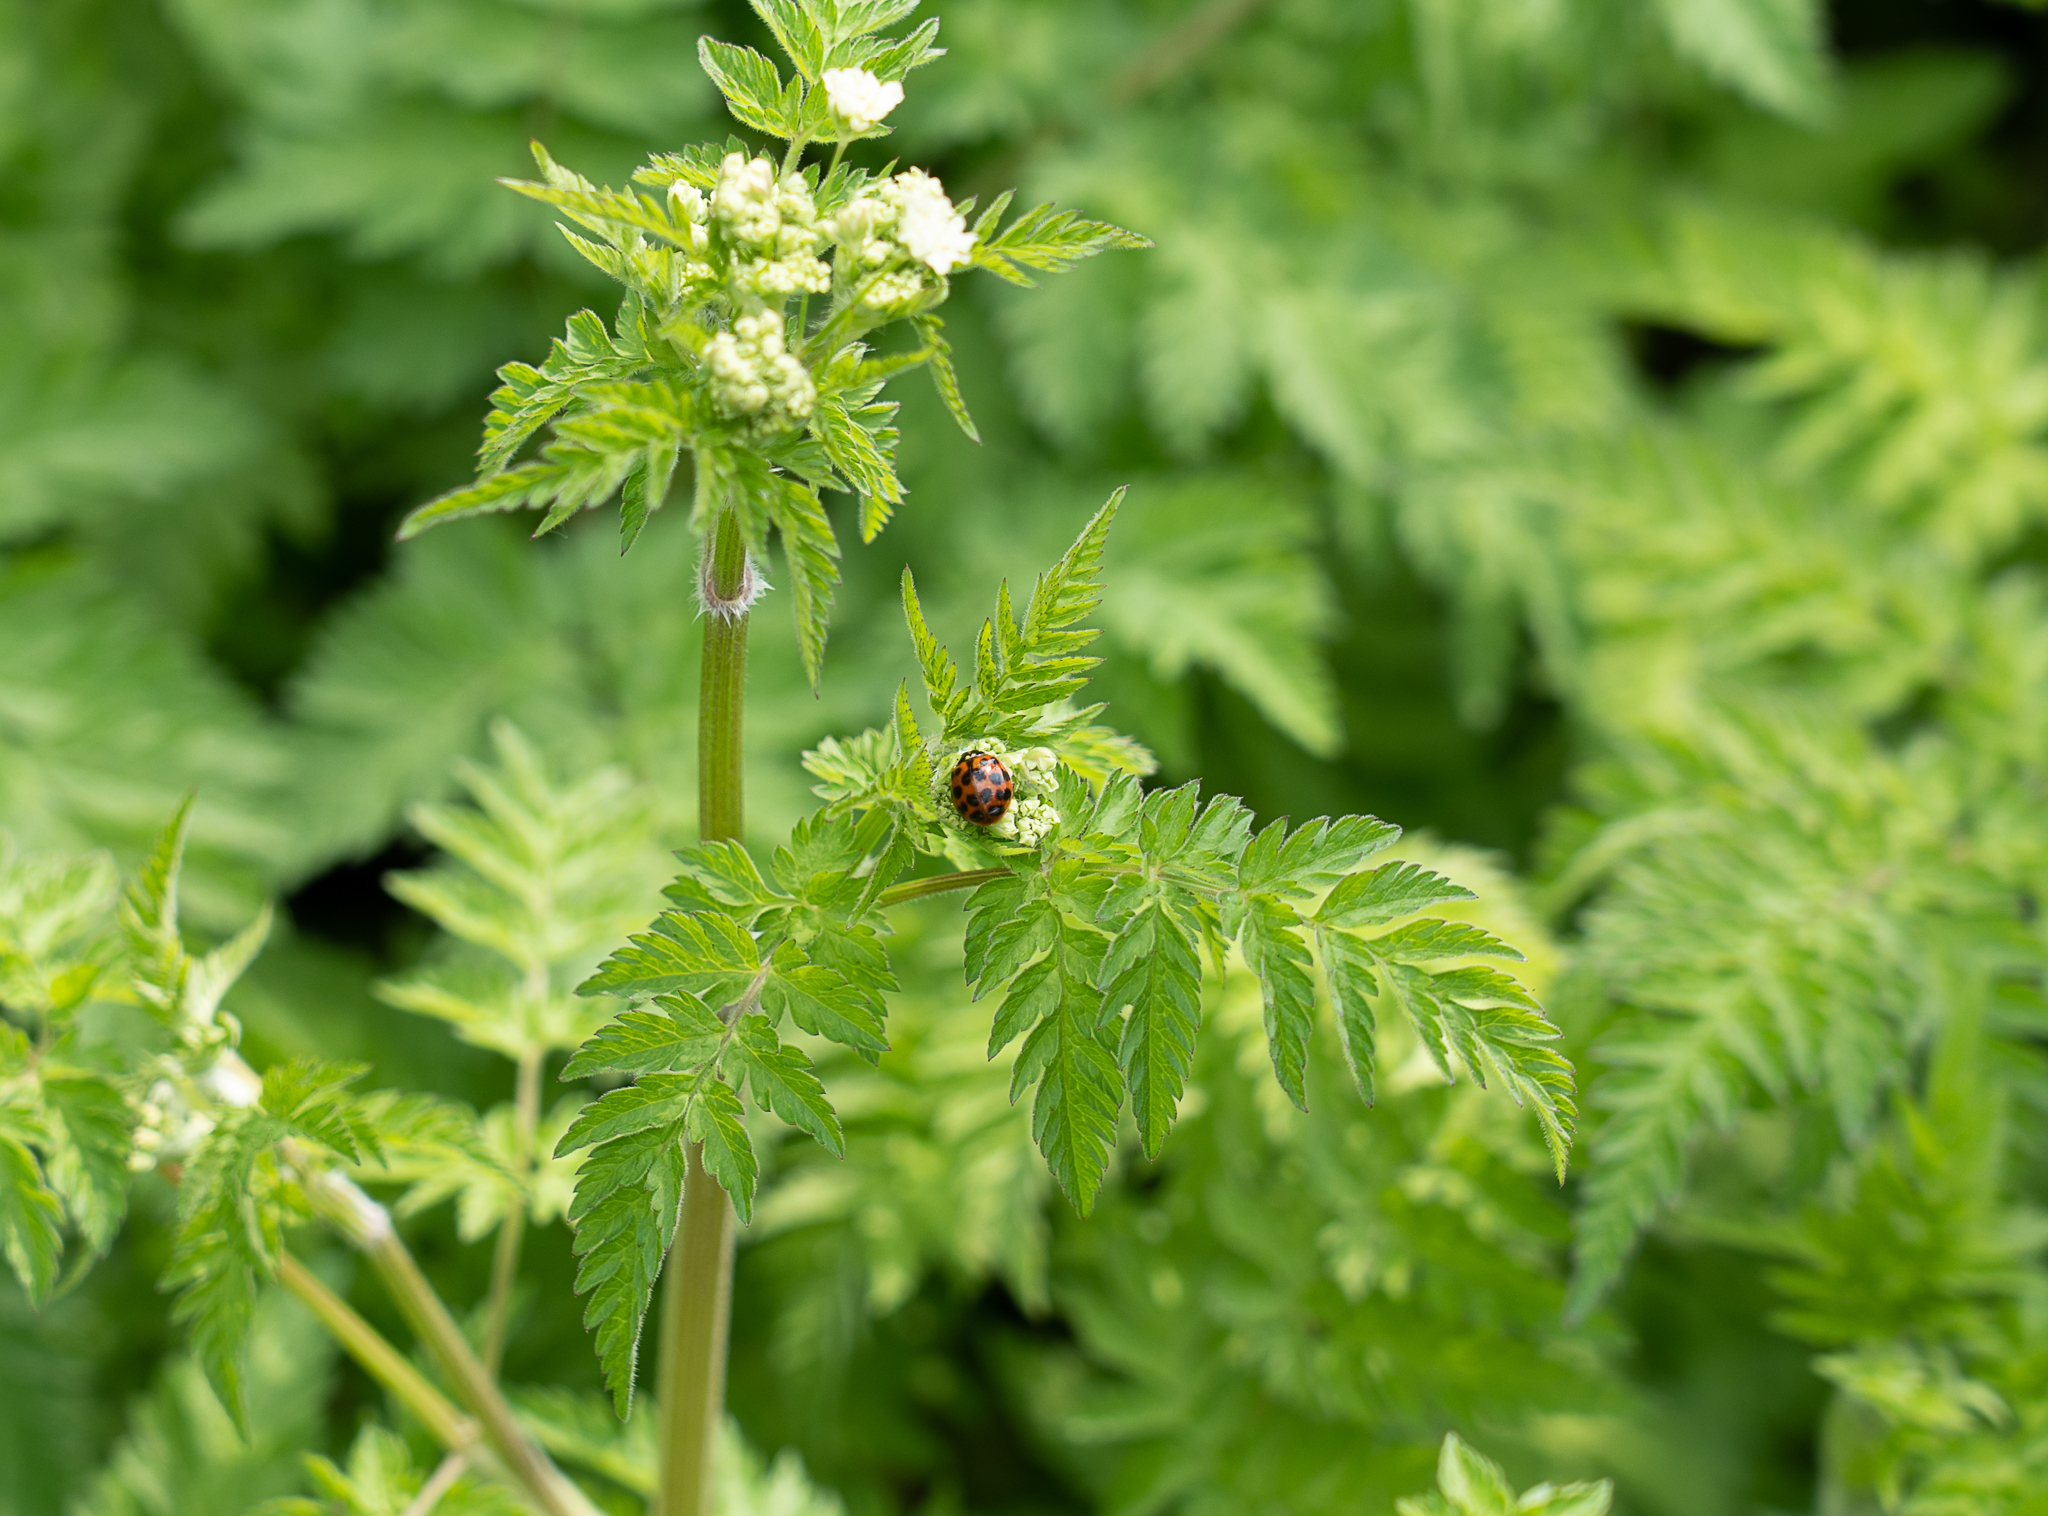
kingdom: Animalia
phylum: Arthropoda
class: Insecta
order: Coleoptera
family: Coccinellidae
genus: Harmonia
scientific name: Harmonia axyridis
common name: Harlequin ladybird
